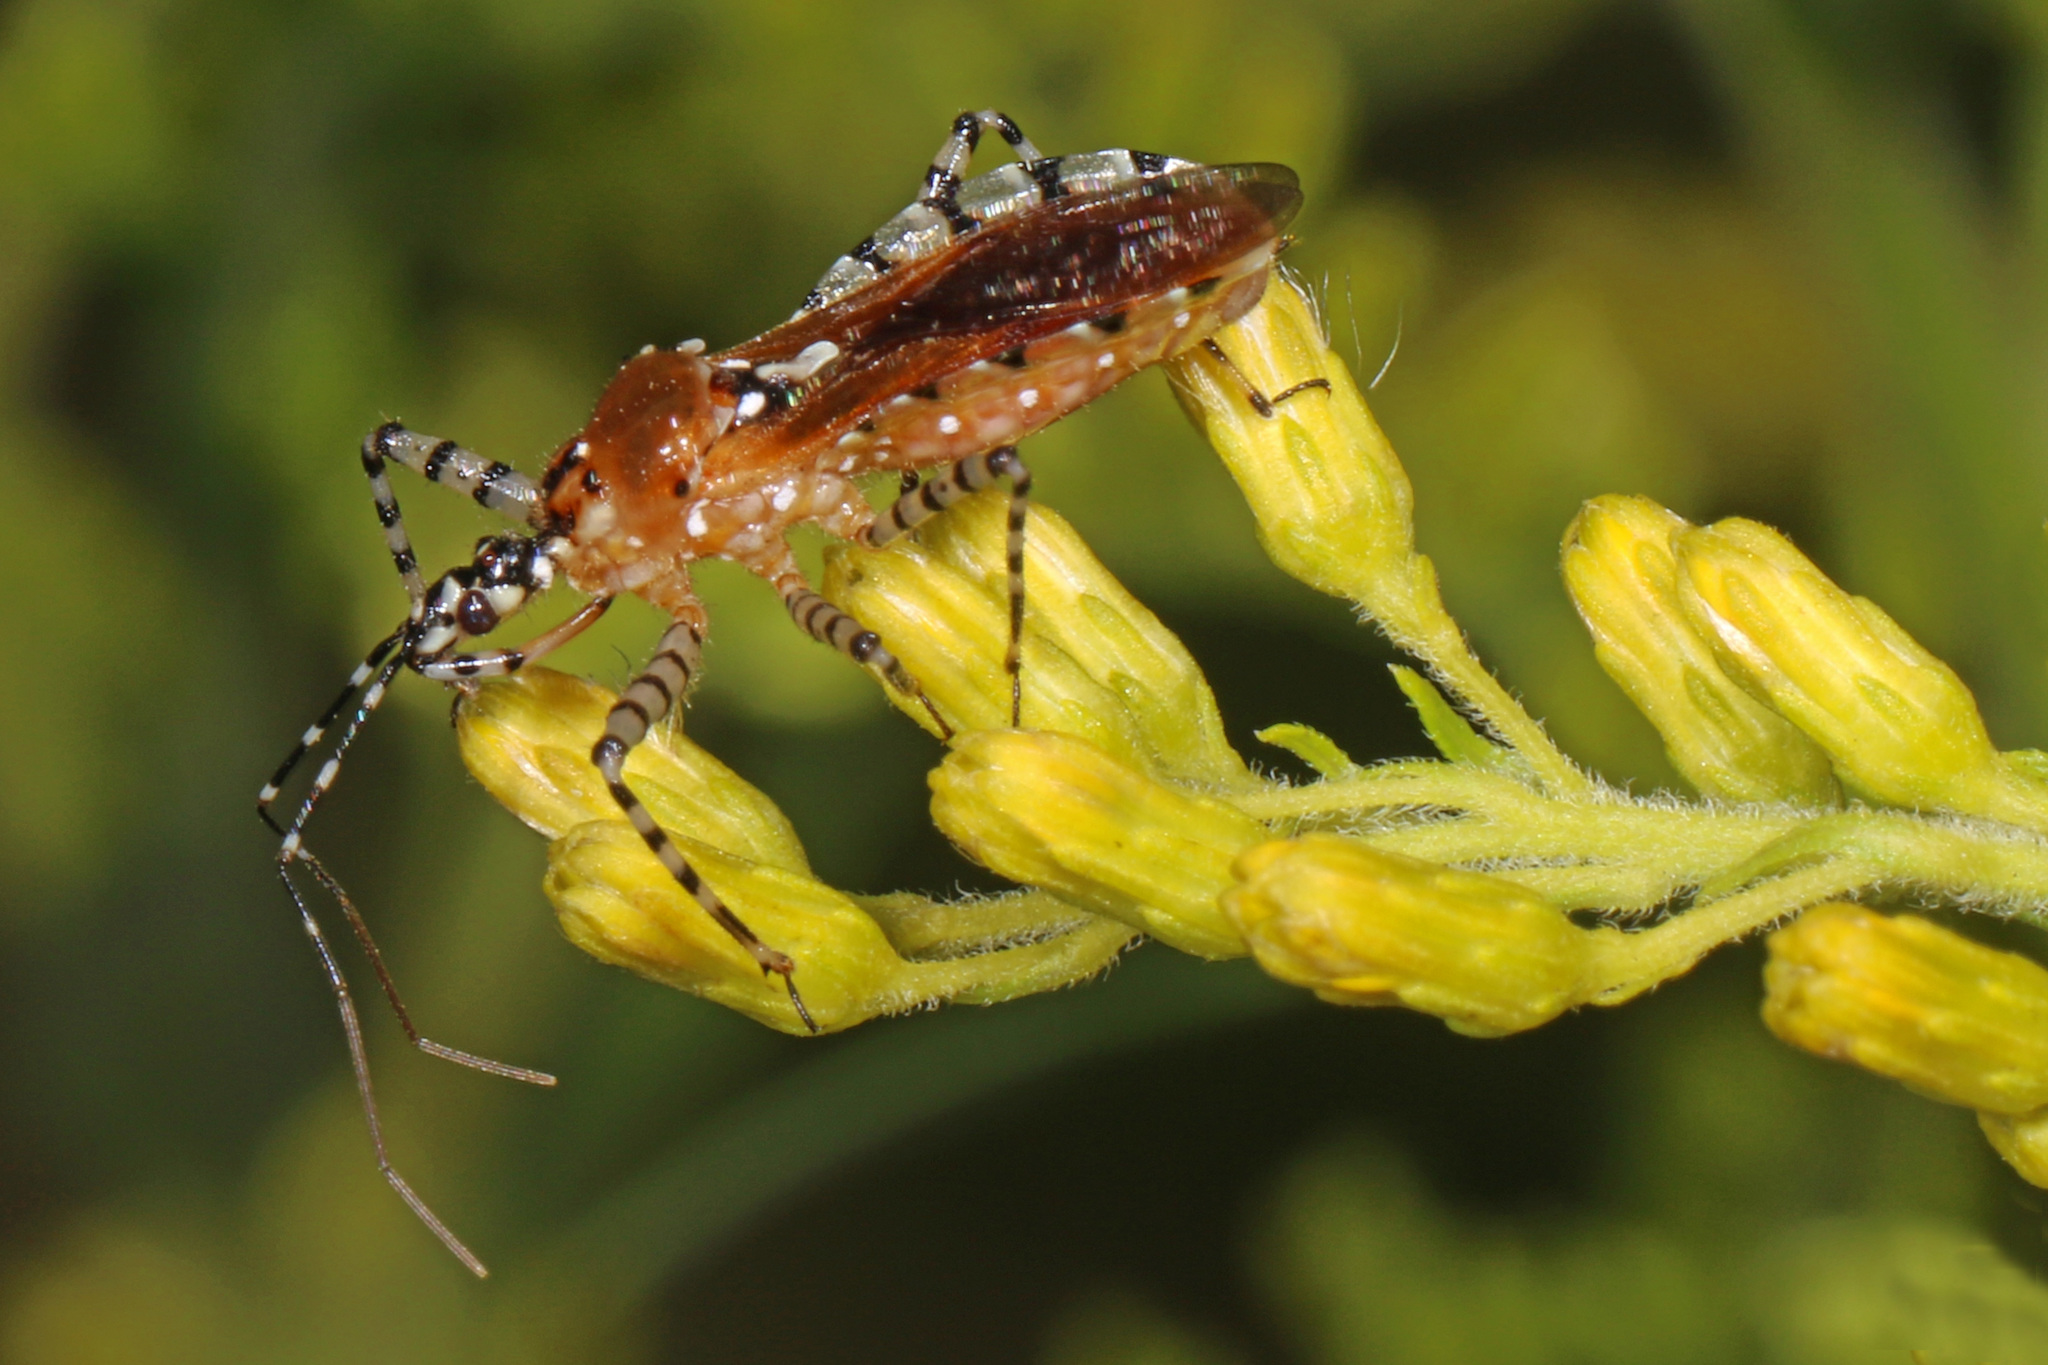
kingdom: Animalia
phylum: Arthropoda
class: Insecta
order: Hemiptera
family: Reduviidae
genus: Pselliopus
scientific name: Pselliopus cinctus
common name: Ringed assassin bug
